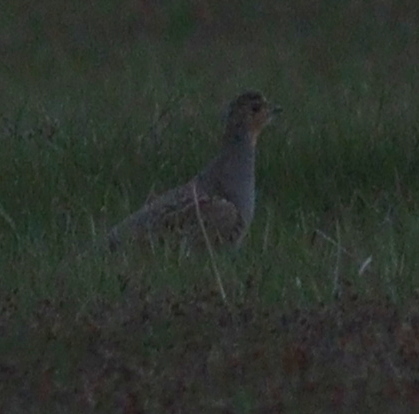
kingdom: Animalia
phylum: Chordata
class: Aves
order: Galliformes
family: Phasianidae
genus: Perdix
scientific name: Perdix perdix
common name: Grey partridge
